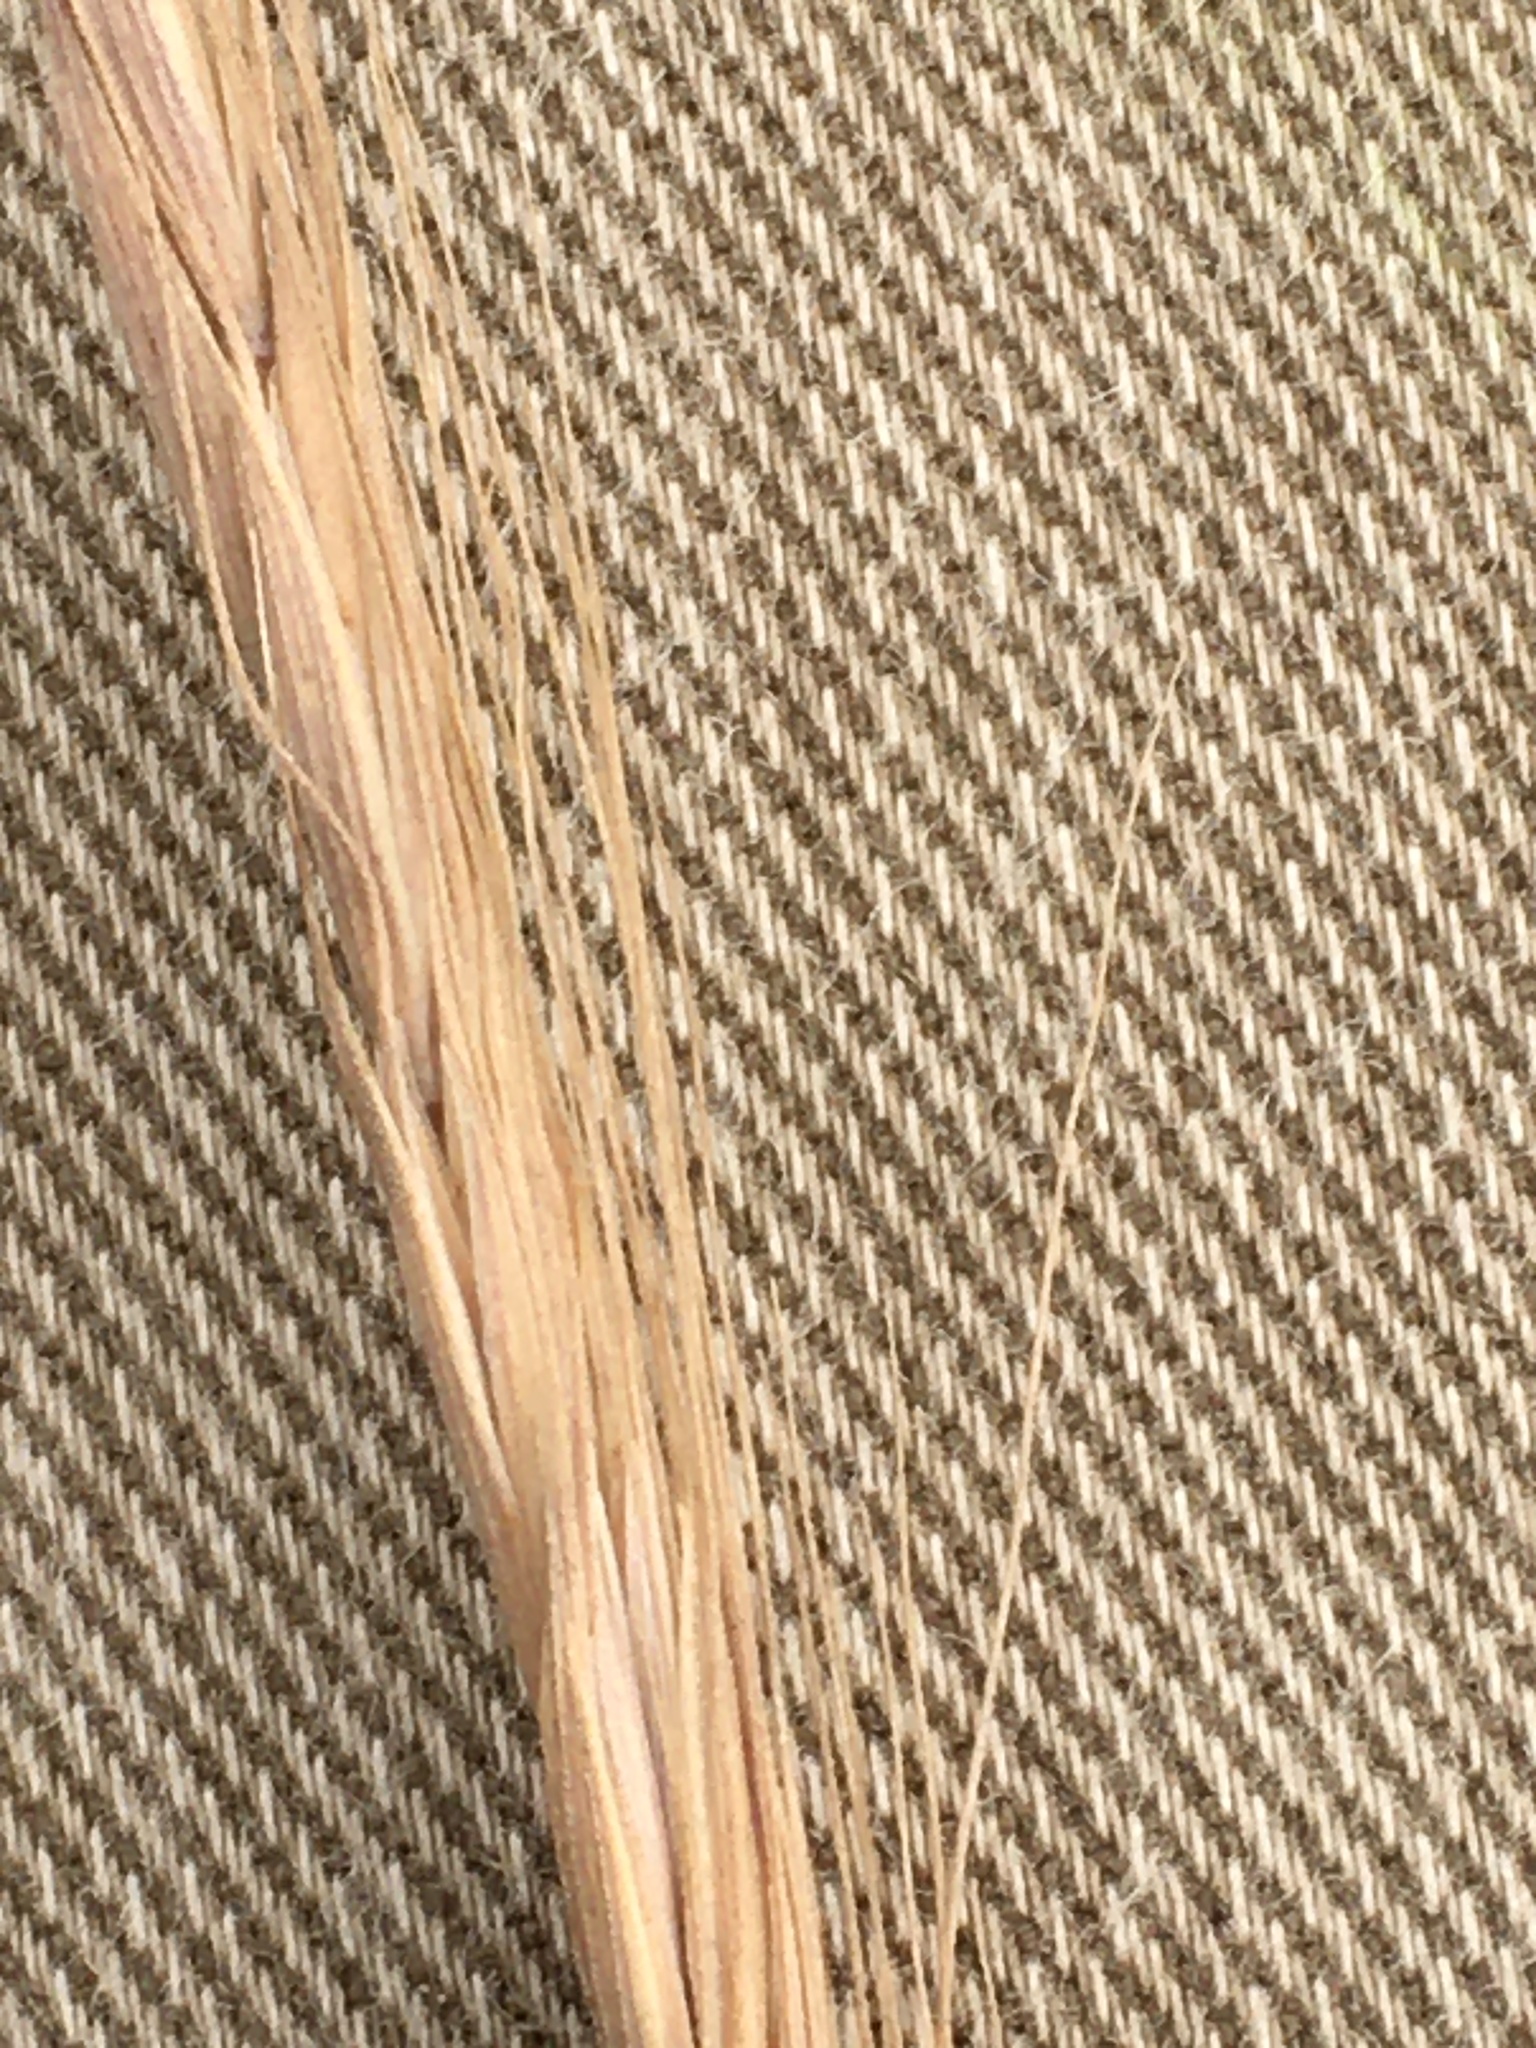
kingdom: Plantae
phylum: Tracheophyta
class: Liliopsida
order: Poales
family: Poaceae
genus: Elymus
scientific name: Elymus violaceus
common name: Arctic wheatgrass
